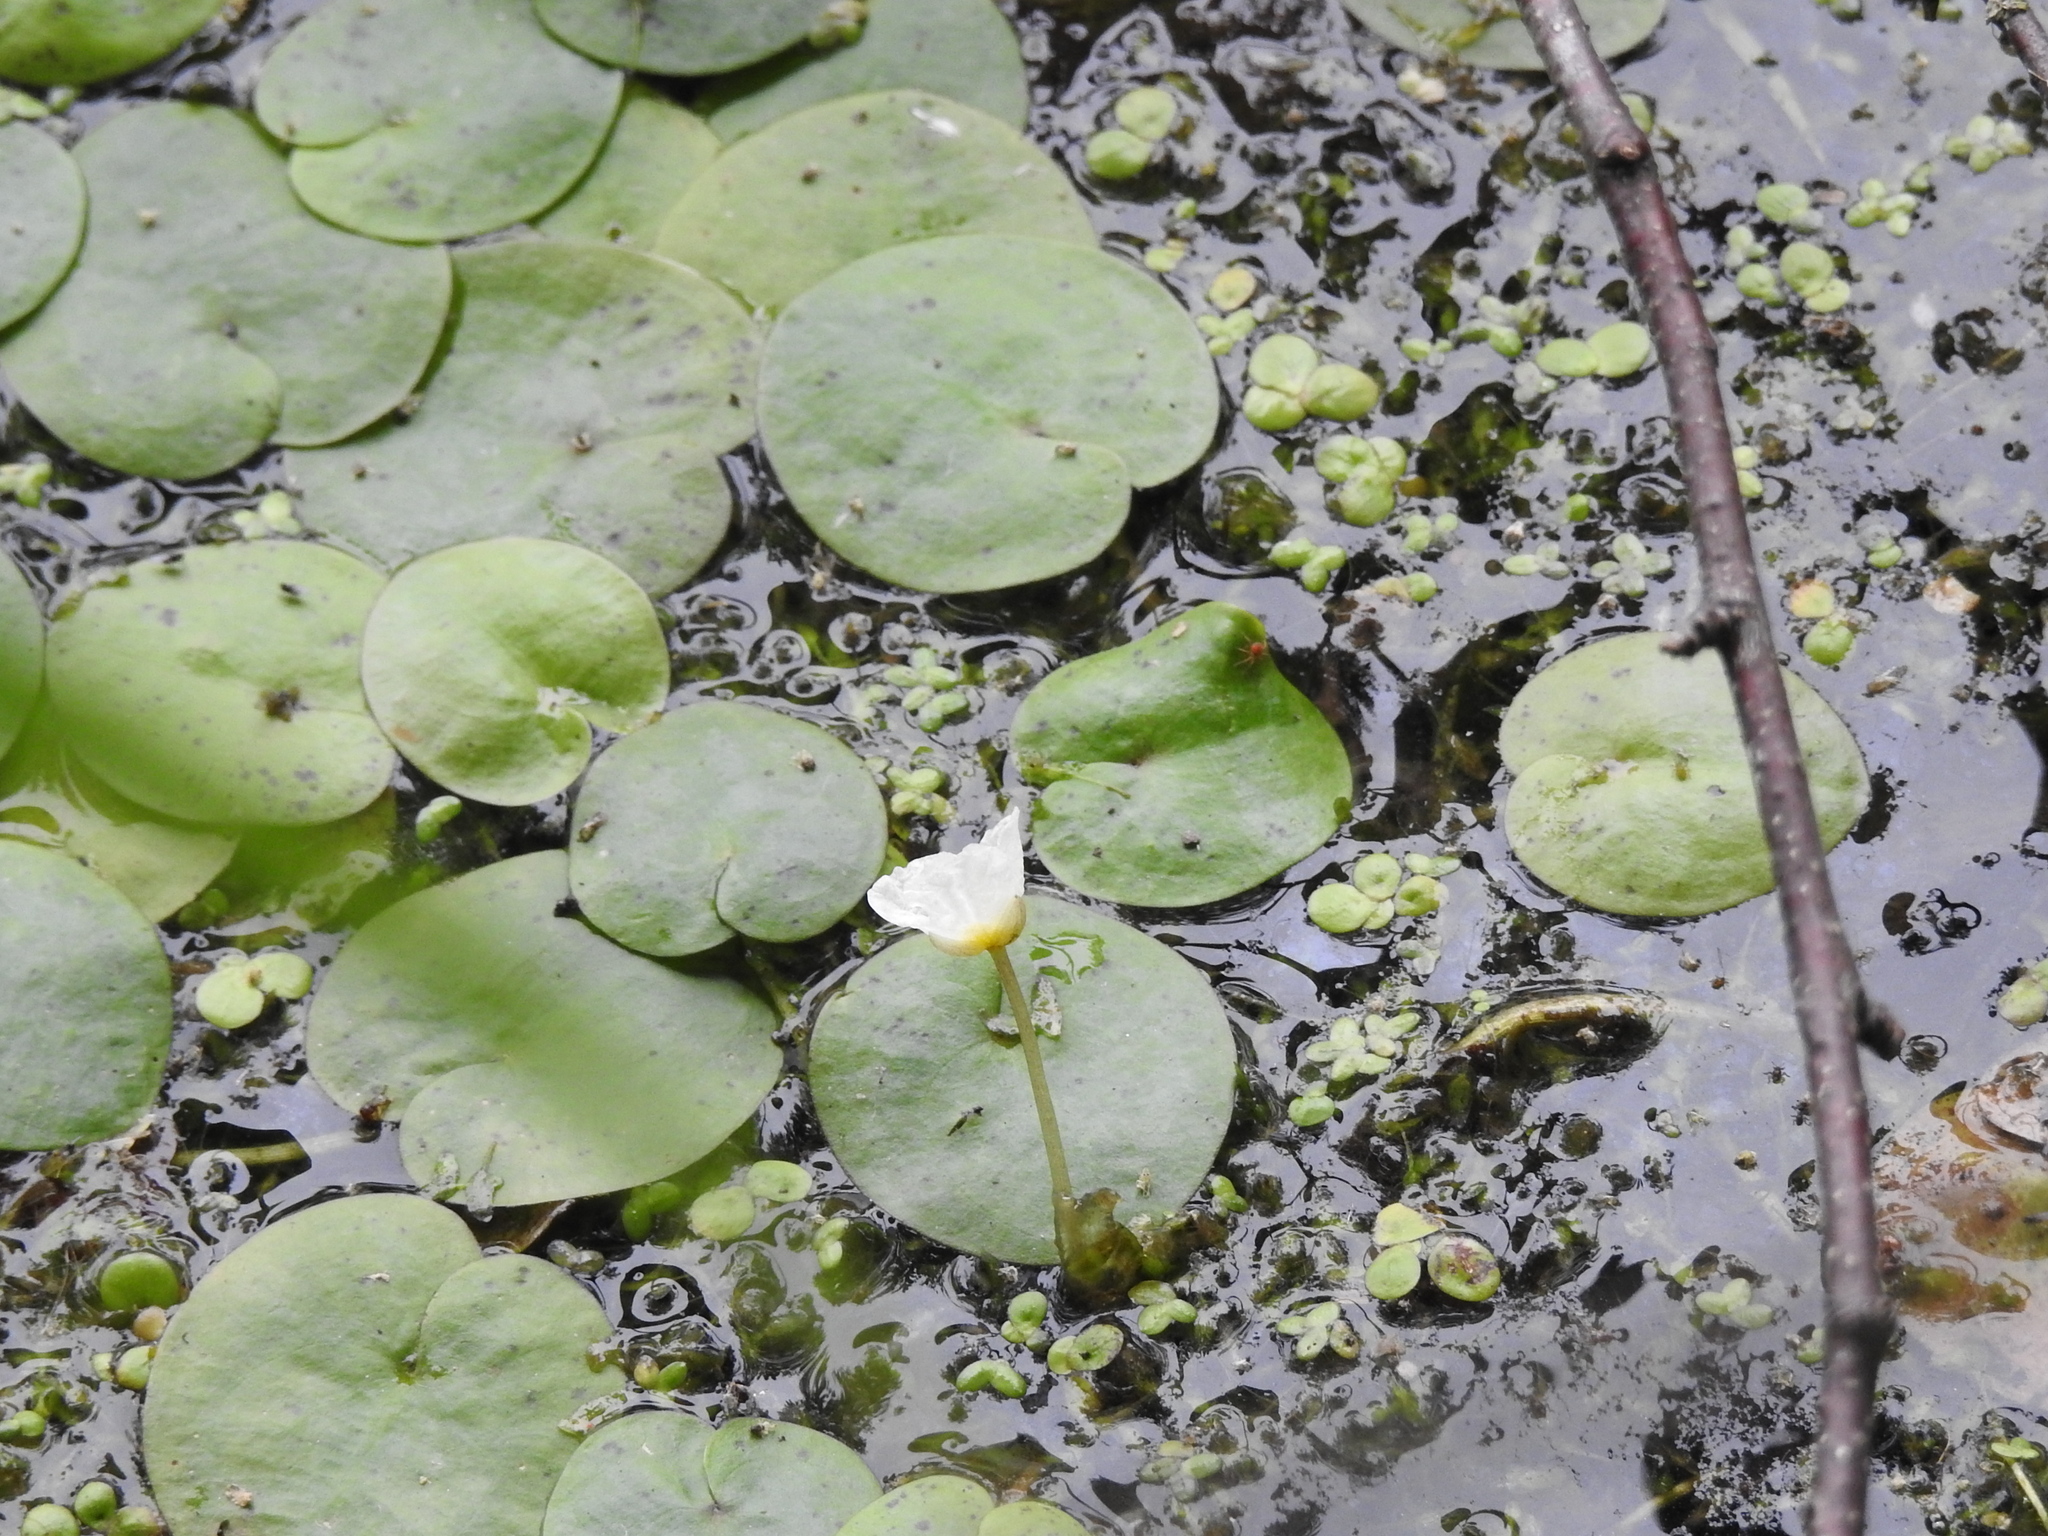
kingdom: Plantae
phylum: Tracheophyta
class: Liliopsida
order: Alismatales
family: Hydrocharitaceae
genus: Hydrocharis
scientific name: Hydrocharis morsus-ranae
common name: Frogbit
